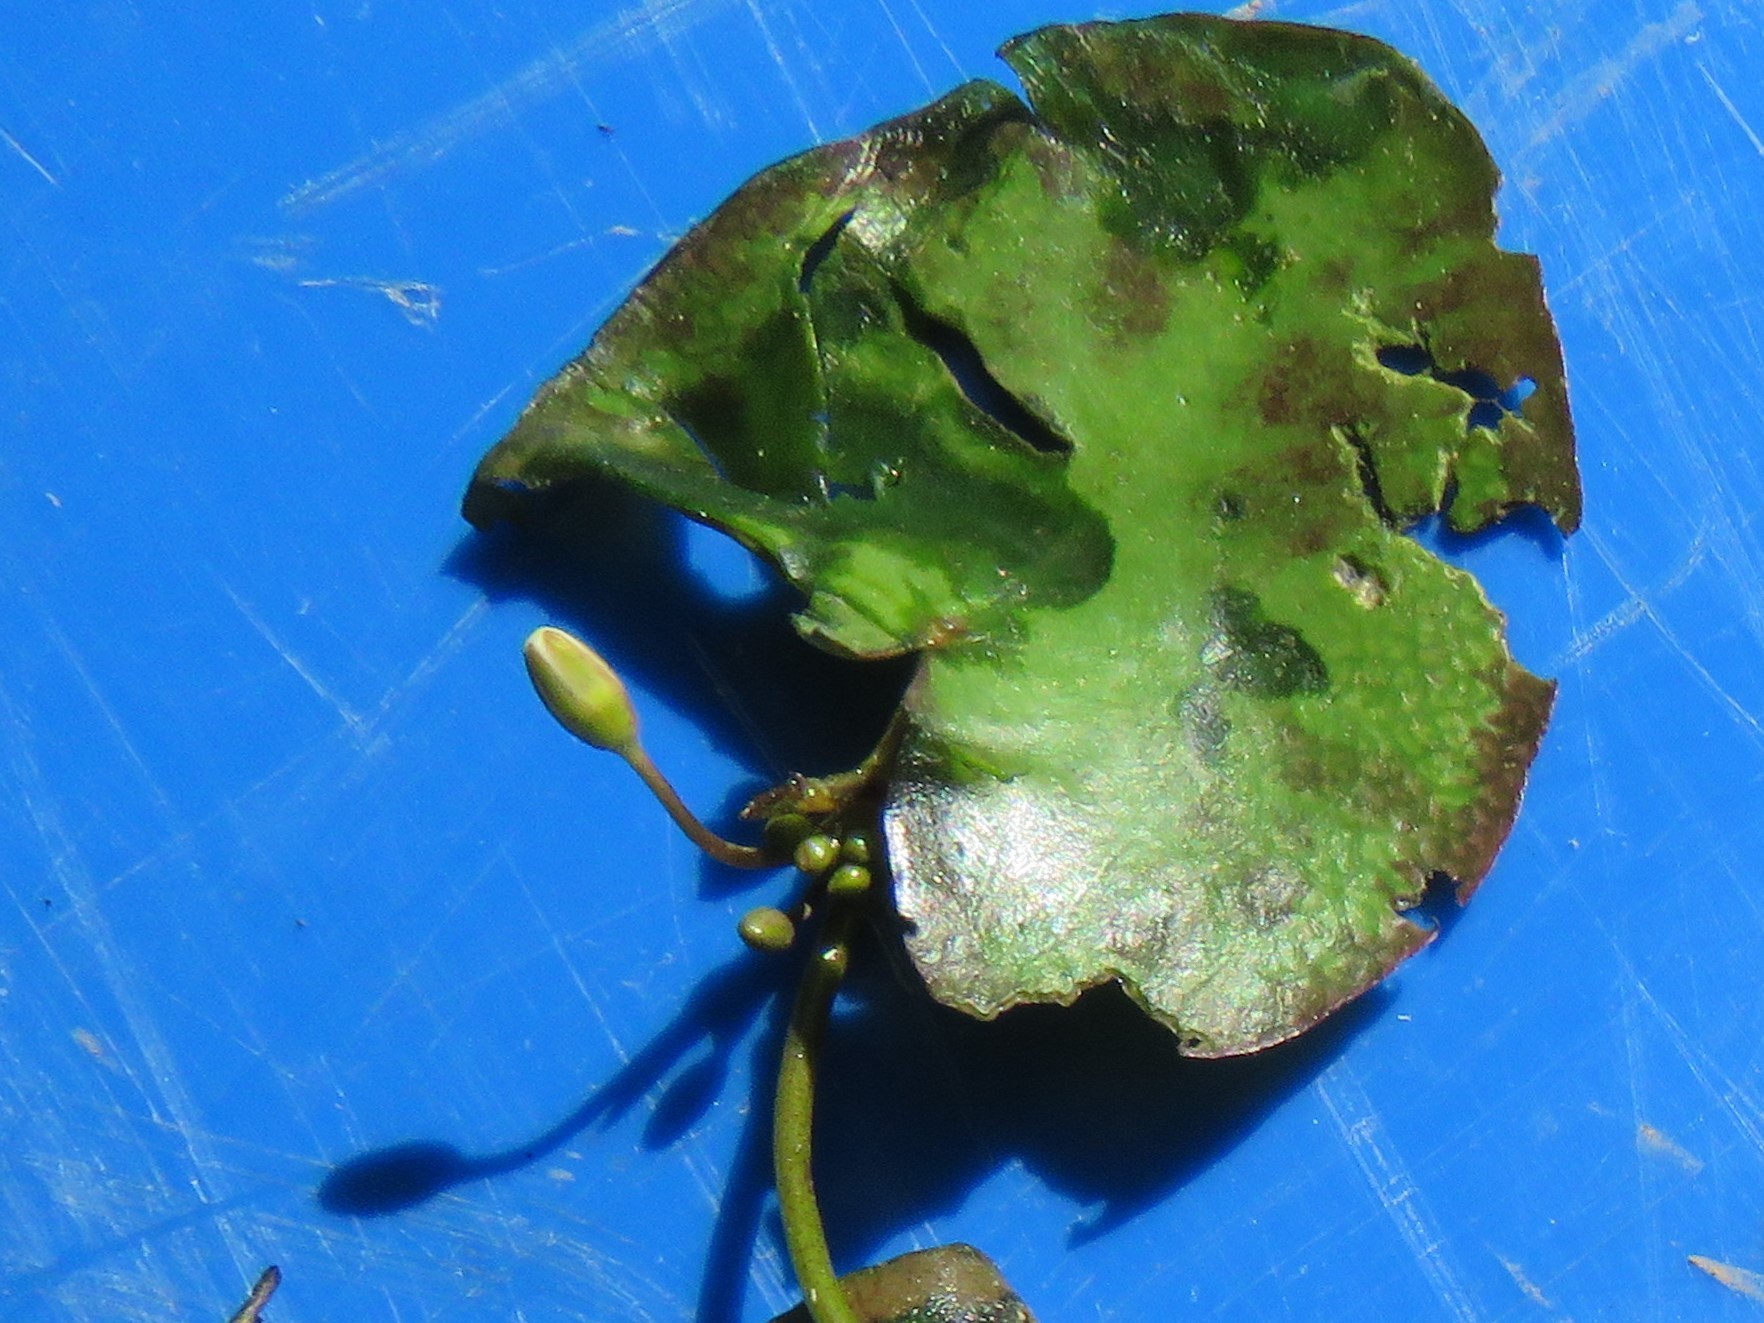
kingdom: Plantae
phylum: Tracheophyta
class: Magnoliopsida
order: Asterales
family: Menyanthaceae
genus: Nymphoides
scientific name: Nymphoides hydrophylla
